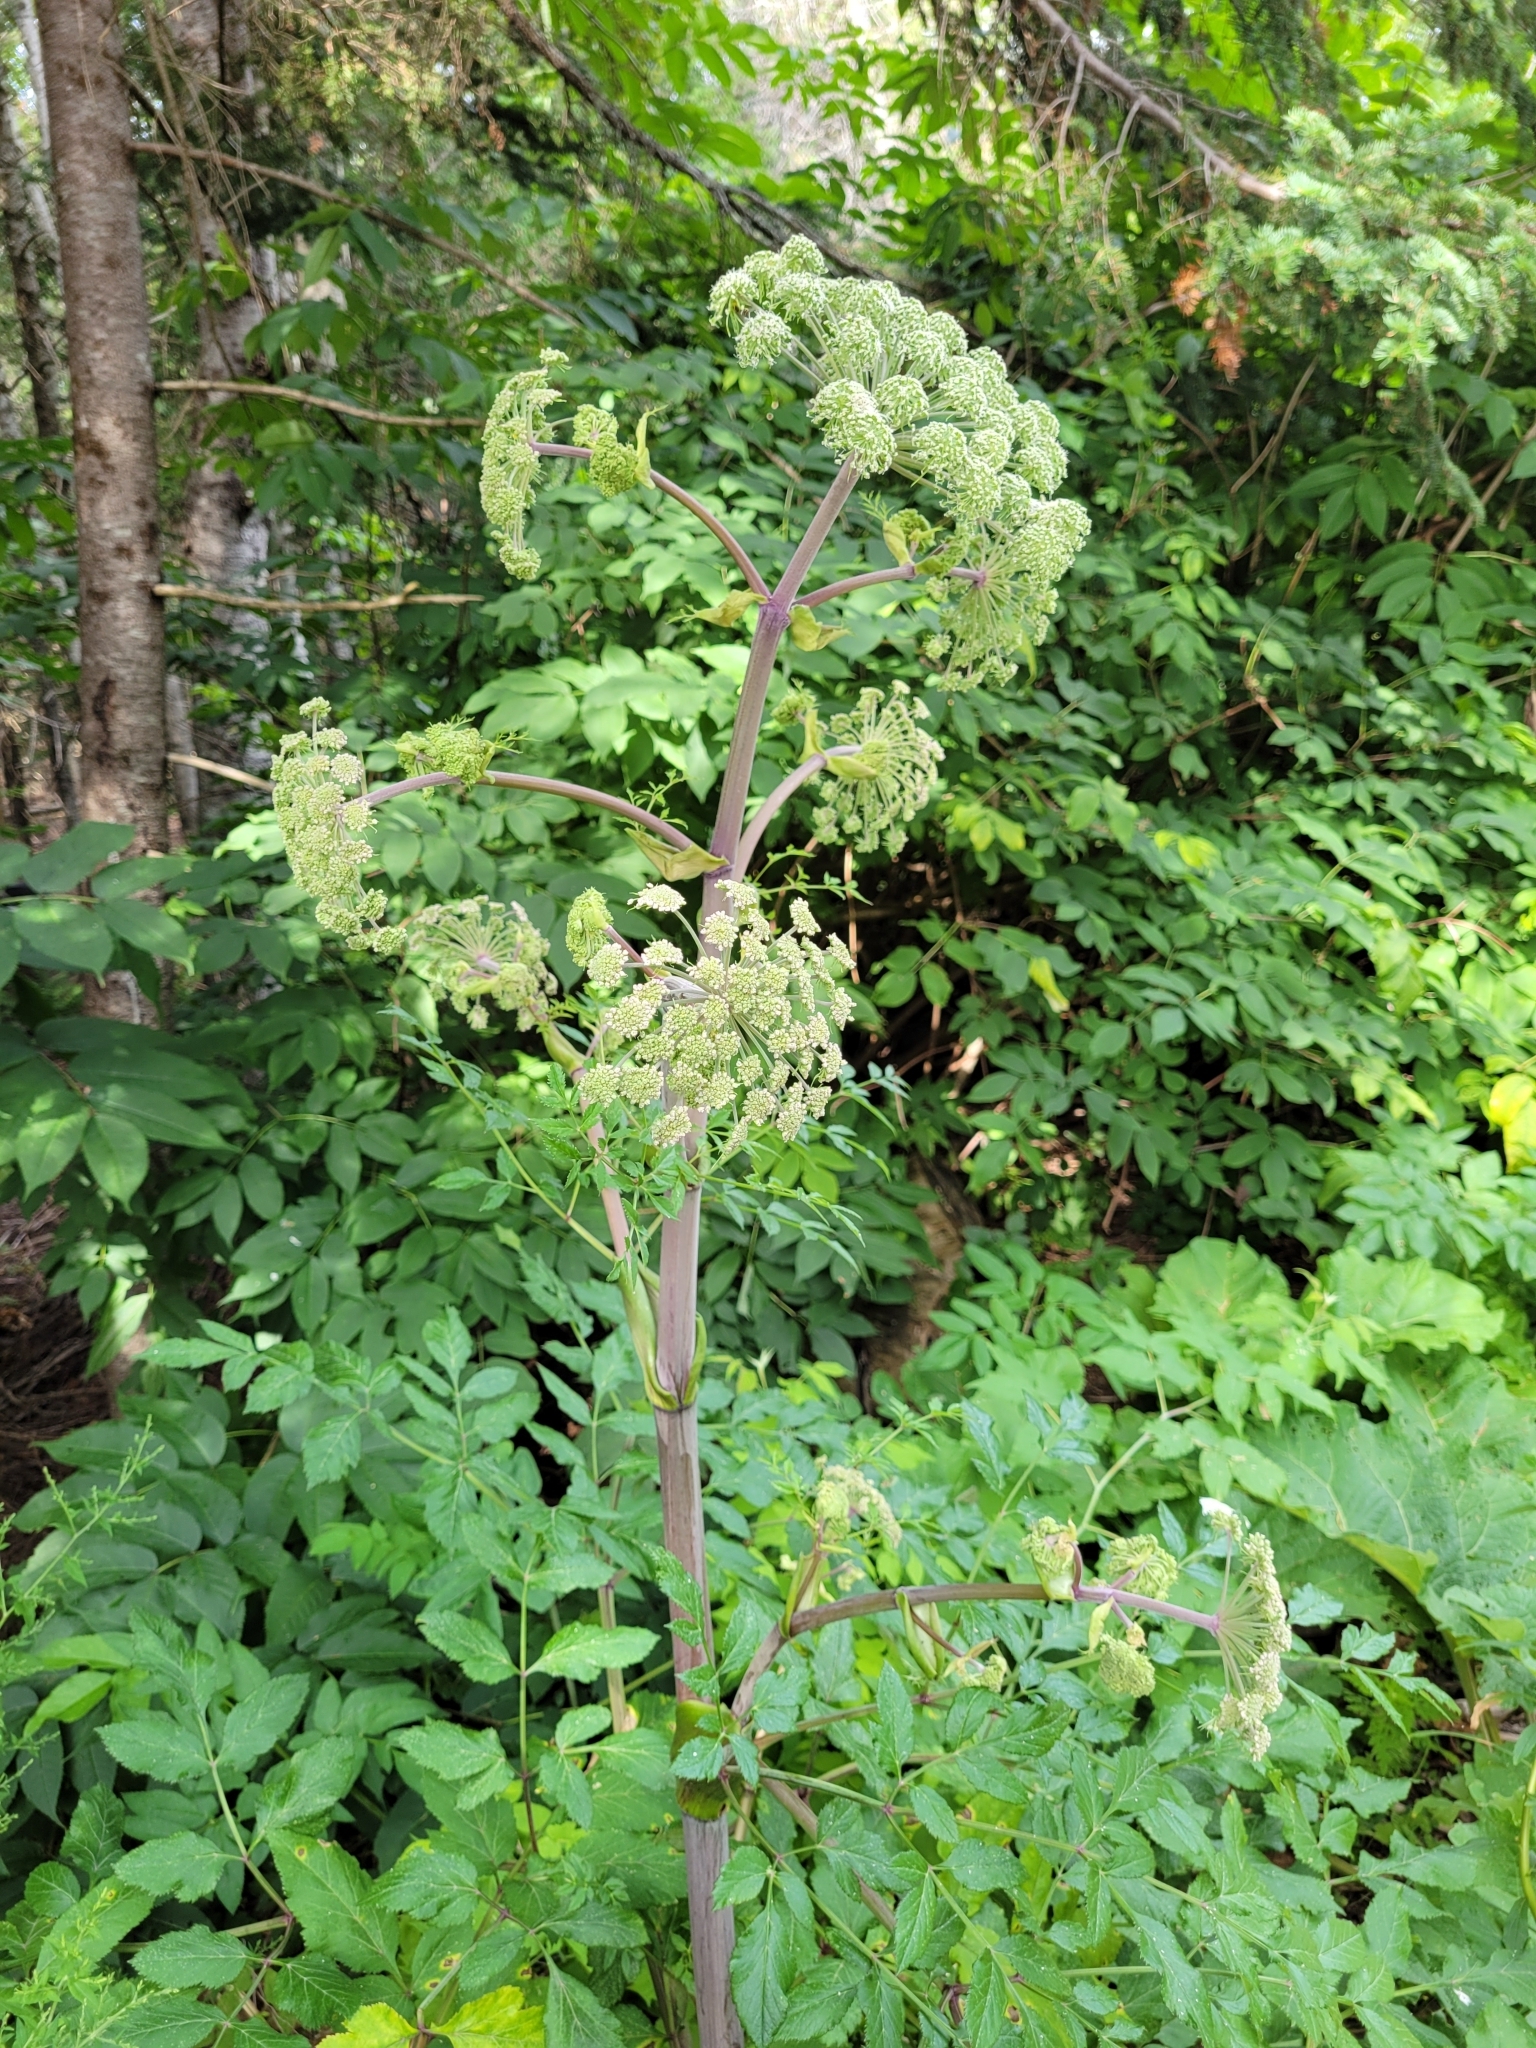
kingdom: Plantae
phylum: Tracheophyta
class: Magnoliopsida
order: Apiales
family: Apiaceae
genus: Angelica
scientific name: Angelica sylvestris
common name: Wild angelica
